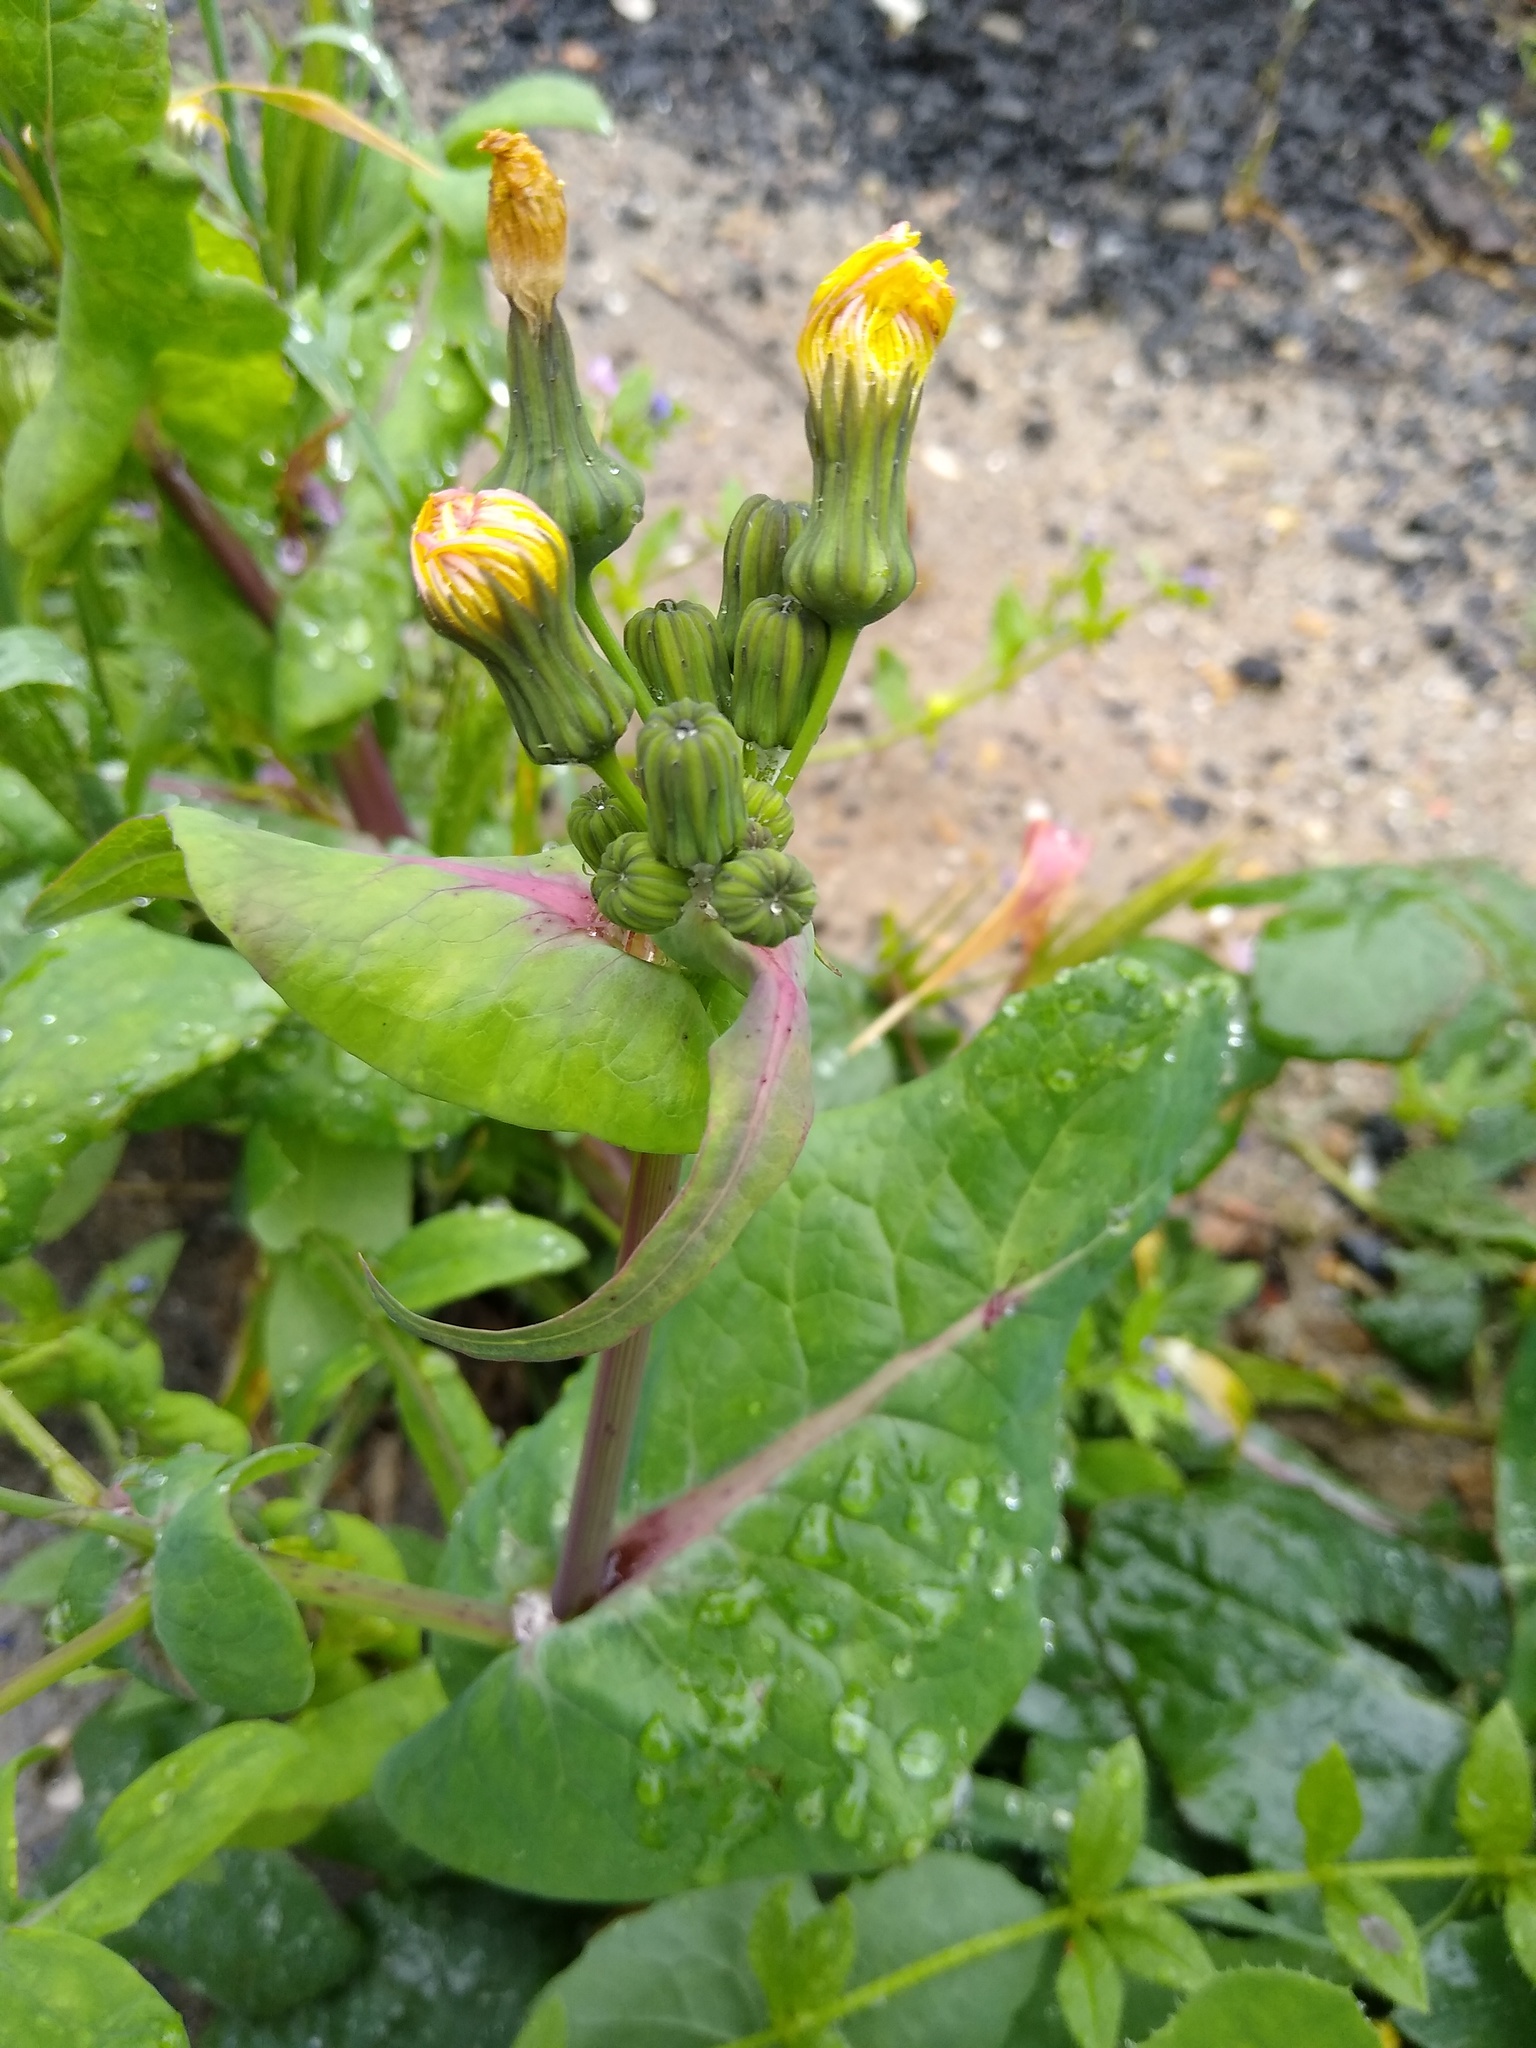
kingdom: Plantae
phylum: Tracheophyta
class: Magnoliopsida
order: Asterales
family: Asteraceae
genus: Sonchus
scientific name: Sonchus oleraceus
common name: Common sowthistle
